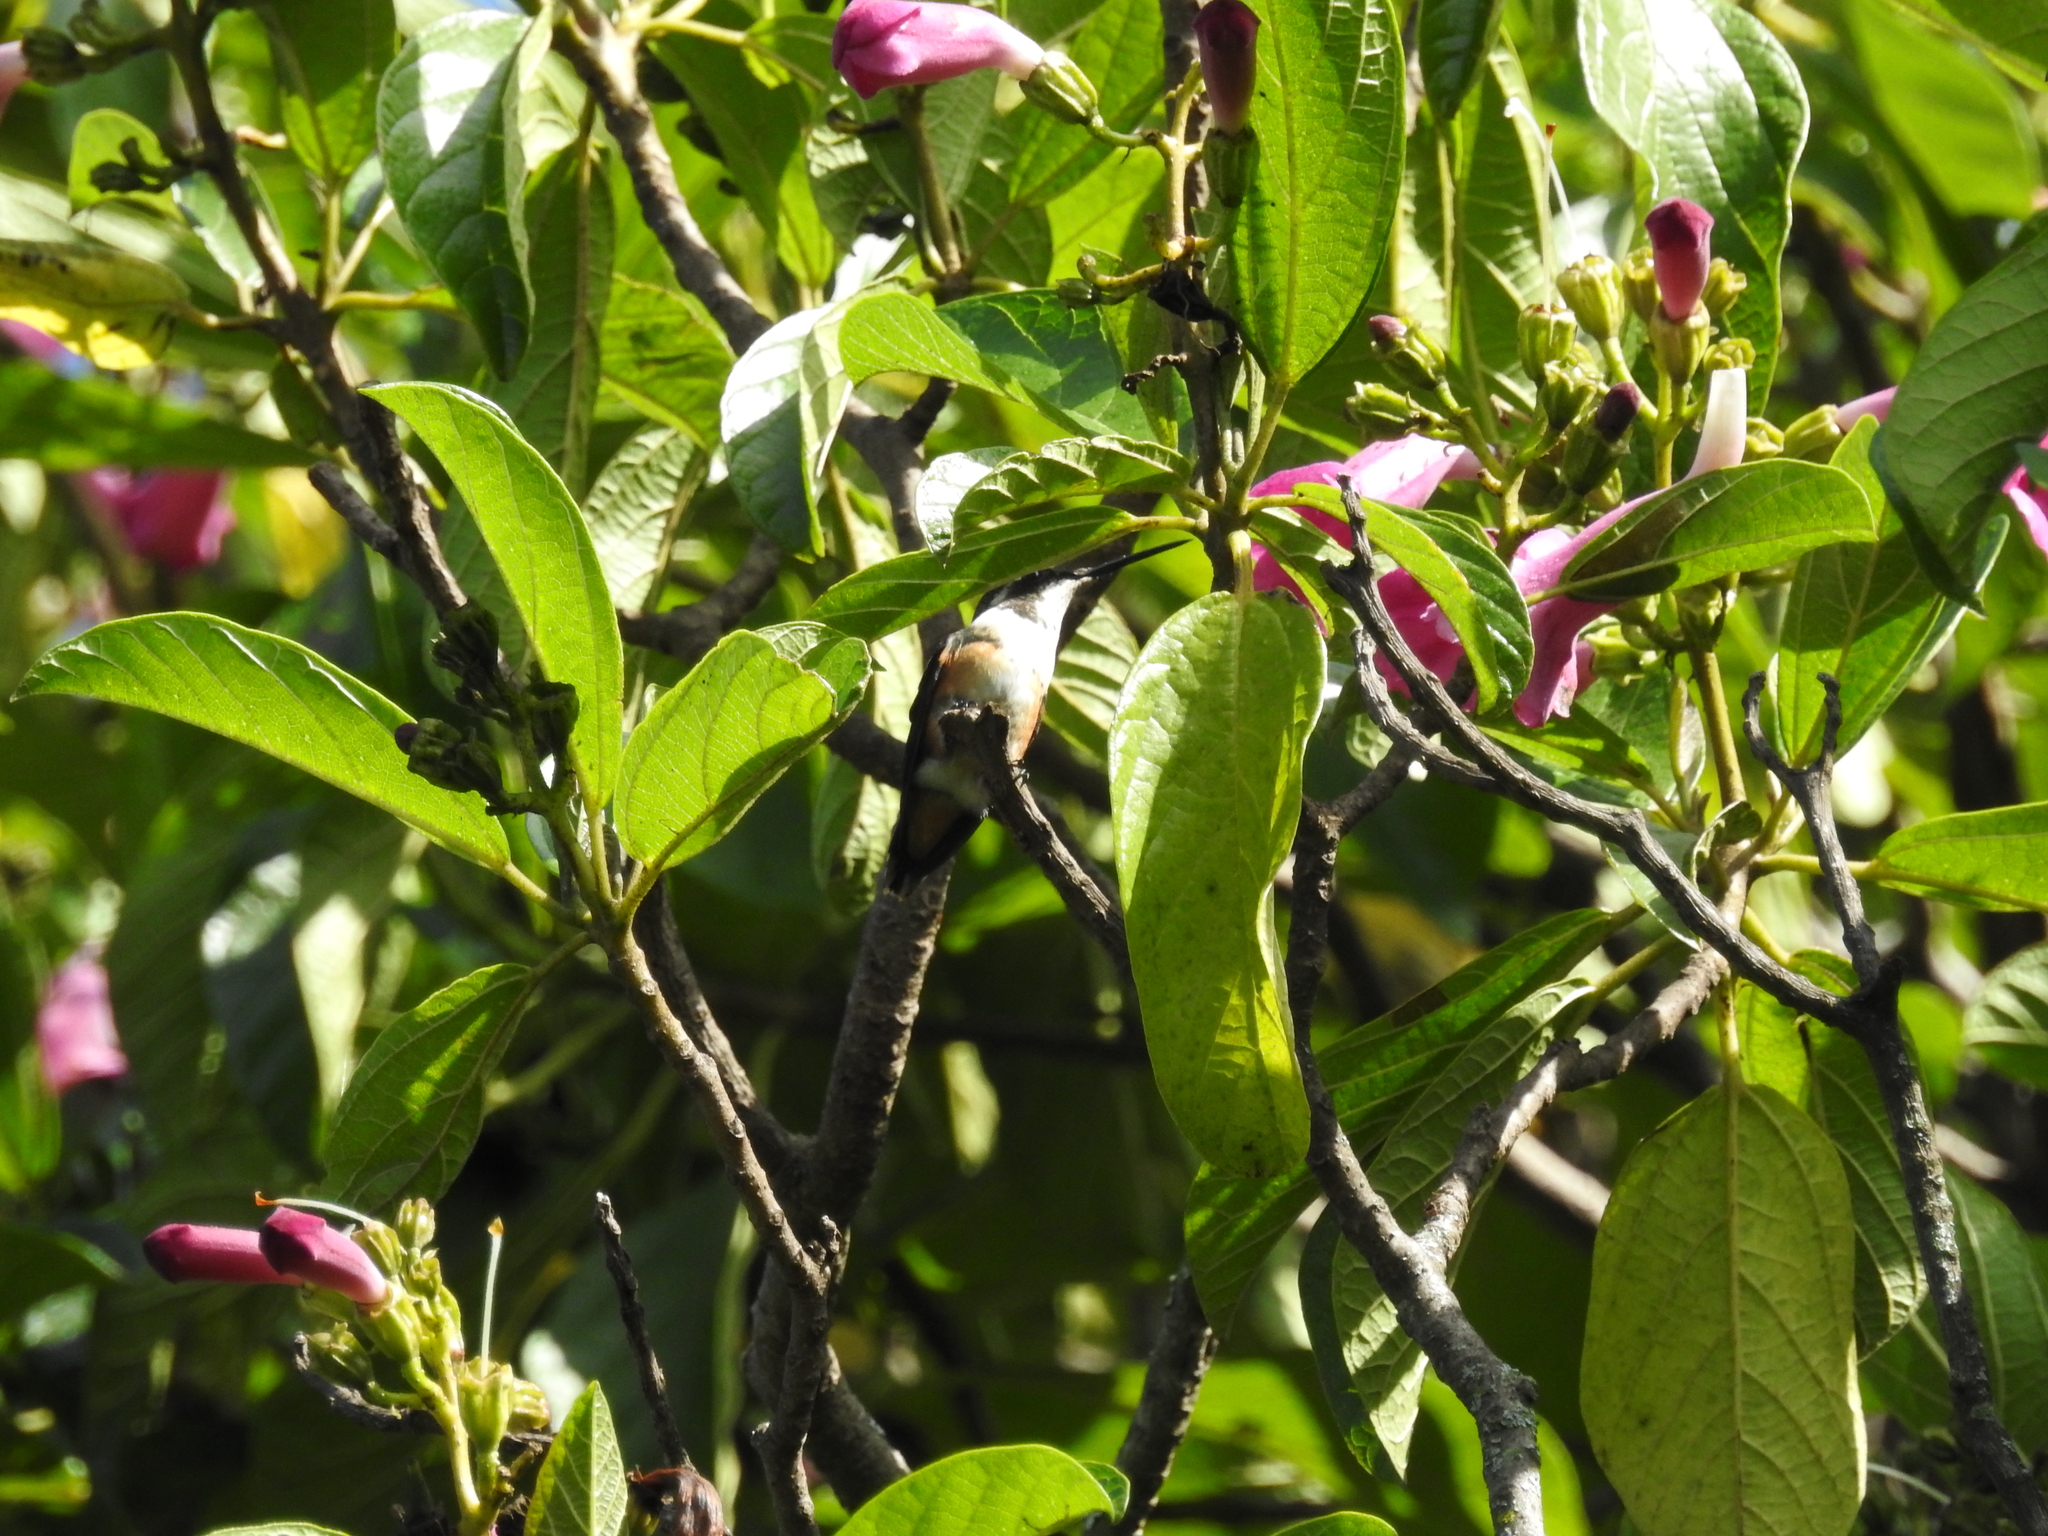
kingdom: Animalia
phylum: Chordata
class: Aves
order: Apodiformes
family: Trochilidae
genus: Chaetocercus
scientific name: Chaetocercus mulsant
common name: White-bellied woodstar
